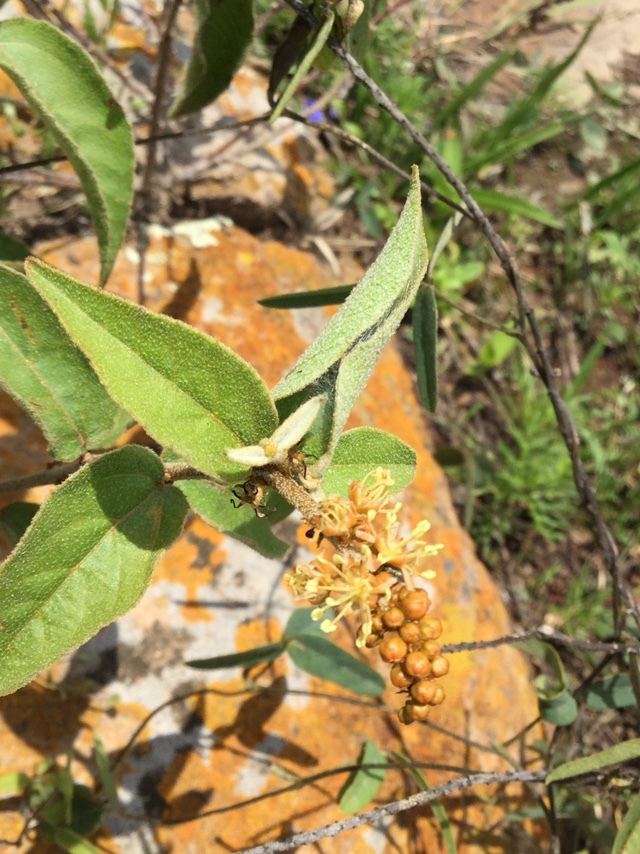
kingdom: Plantae
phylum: Tracheophyta
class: Magnoliopsida
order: Malpighiales
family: Euphorbiaceae
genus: Croton
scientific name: Croton adspersus
